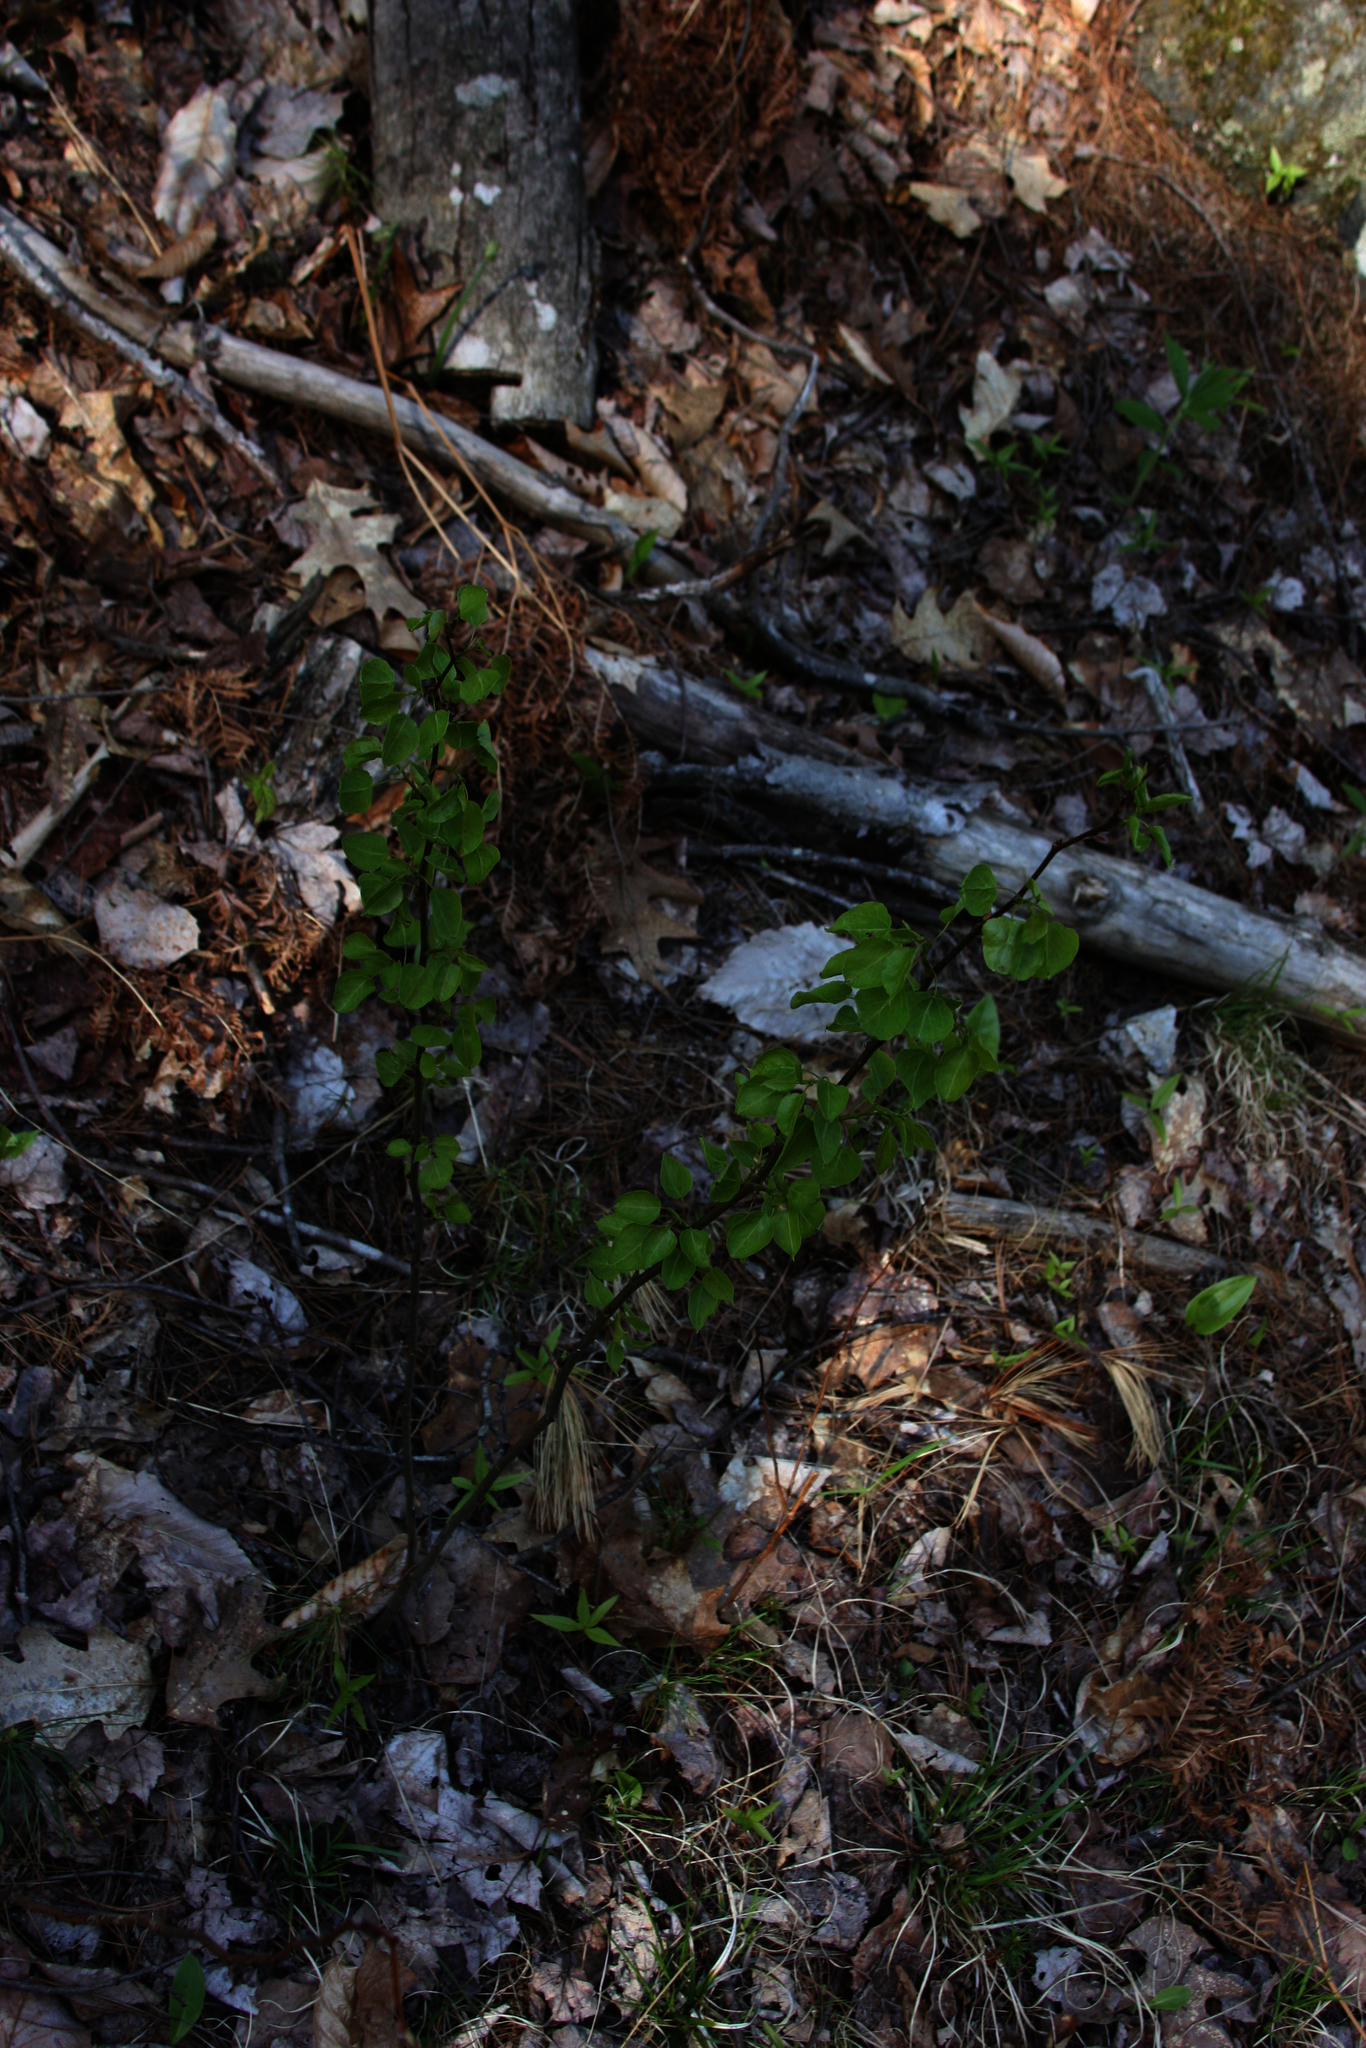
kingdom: Plantae
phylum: Tracheophyta
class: Magnoliopsida
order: Malpighiales
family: Salicaceae
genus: Populus
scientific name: Populus tremuloides
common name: Quaking aspen
